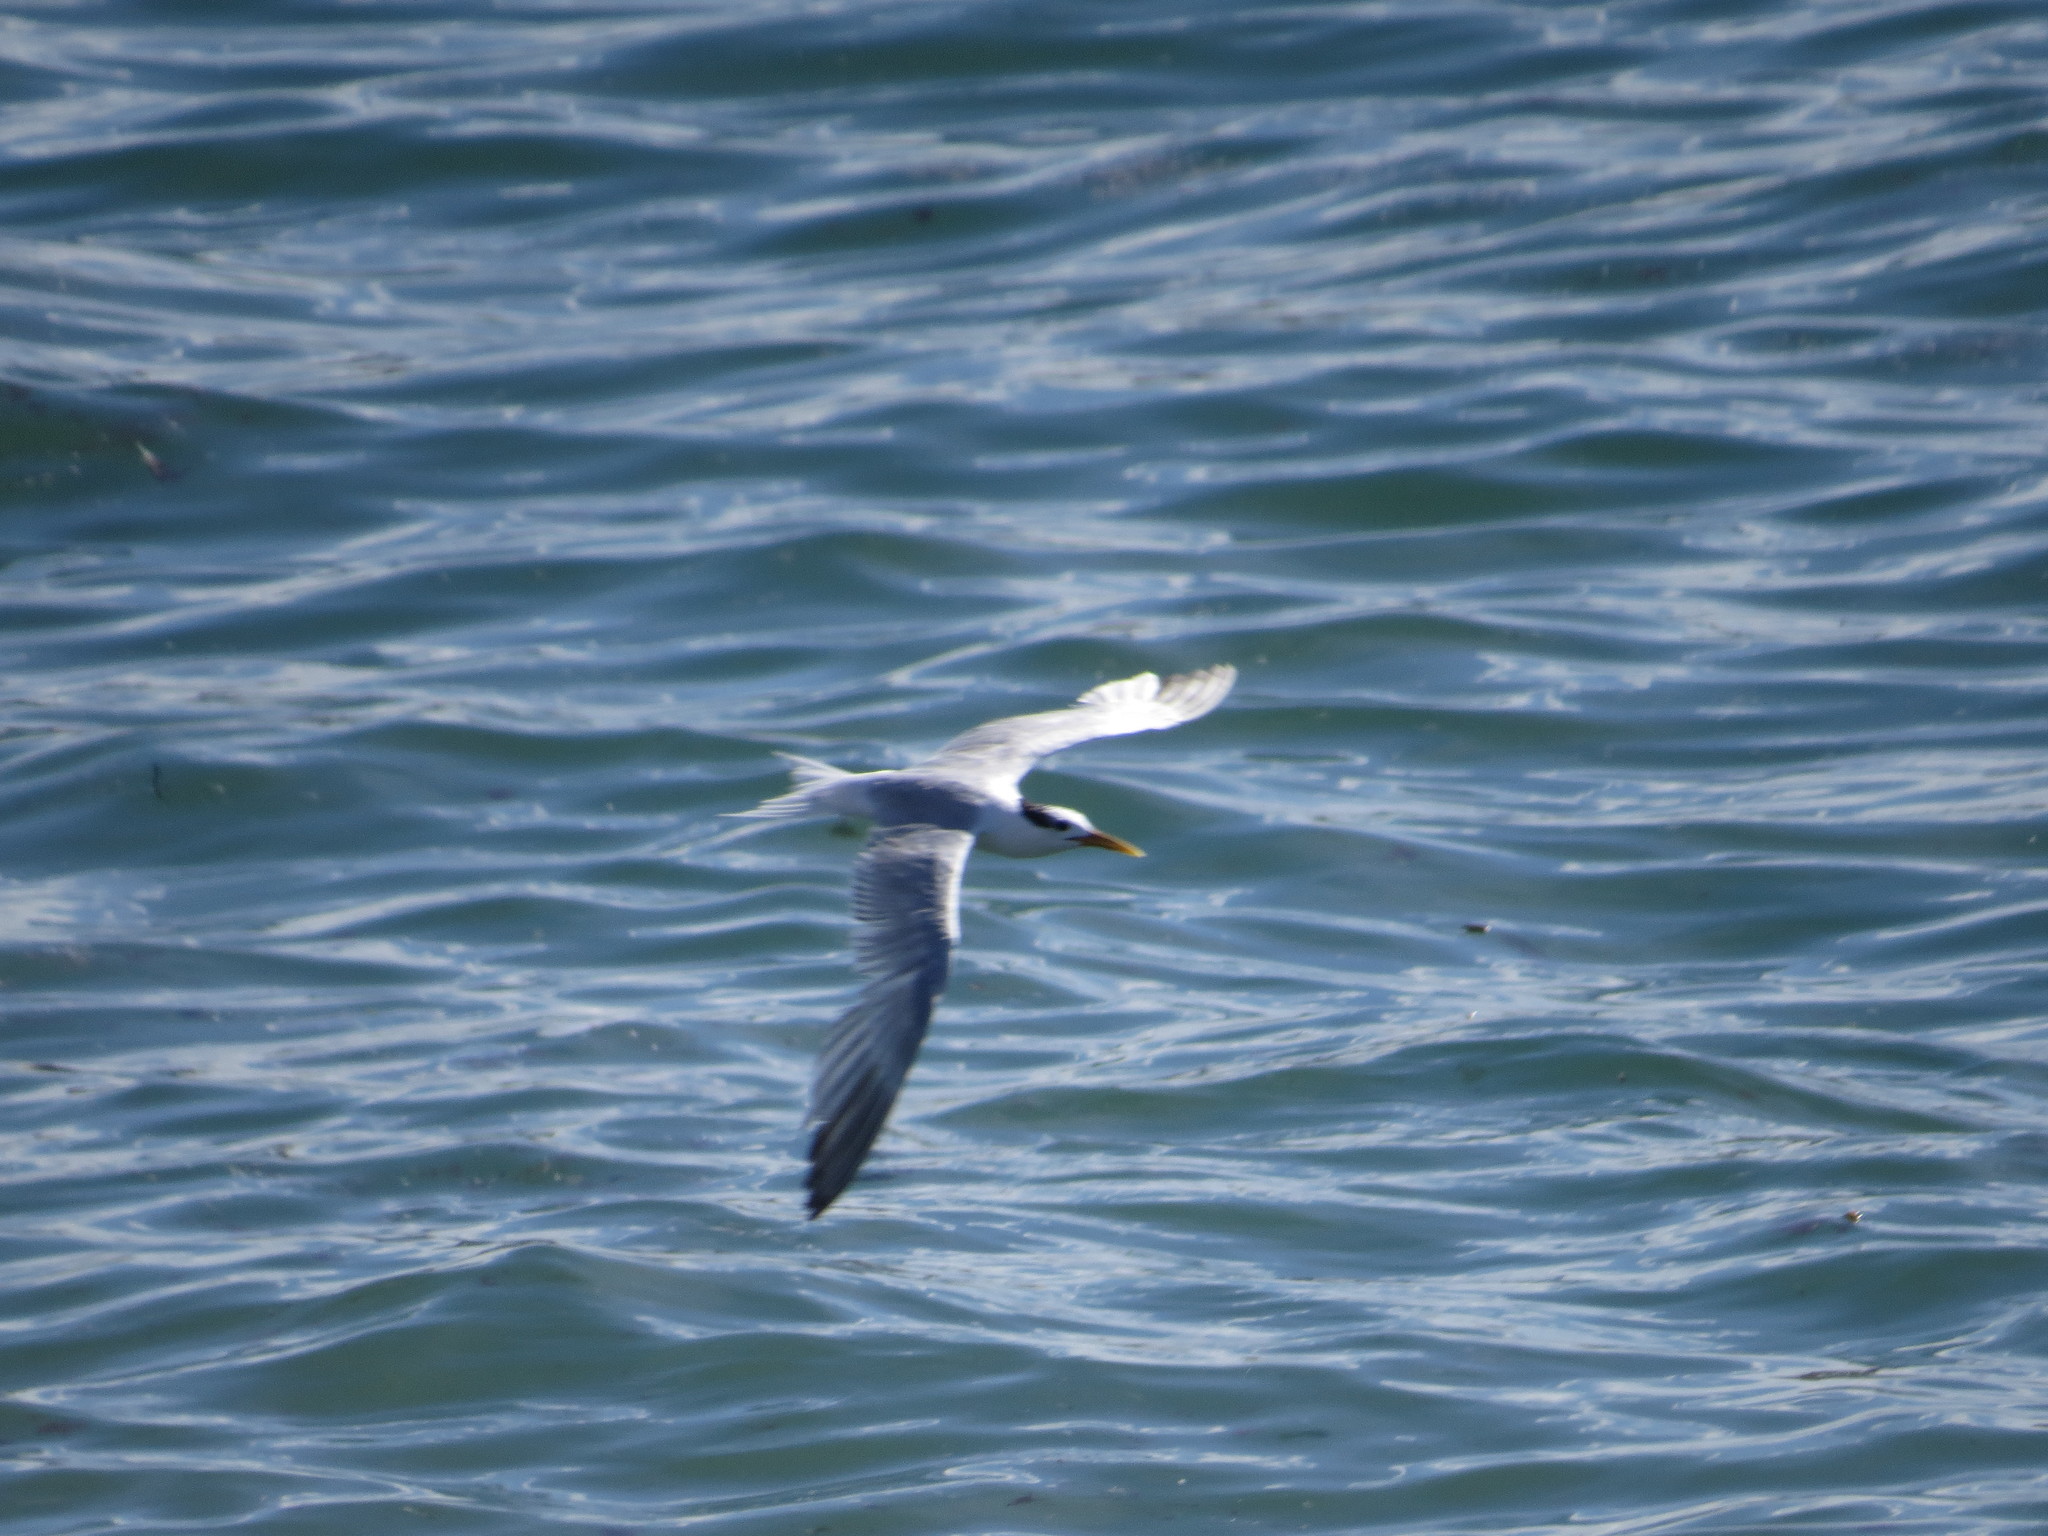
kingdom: Animalia
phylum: Chordata
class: Aves
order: Charadriiformes
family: Laridae
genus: Thalasseus
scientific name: Thalasseus sandvicensis
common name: Sandwich tern
